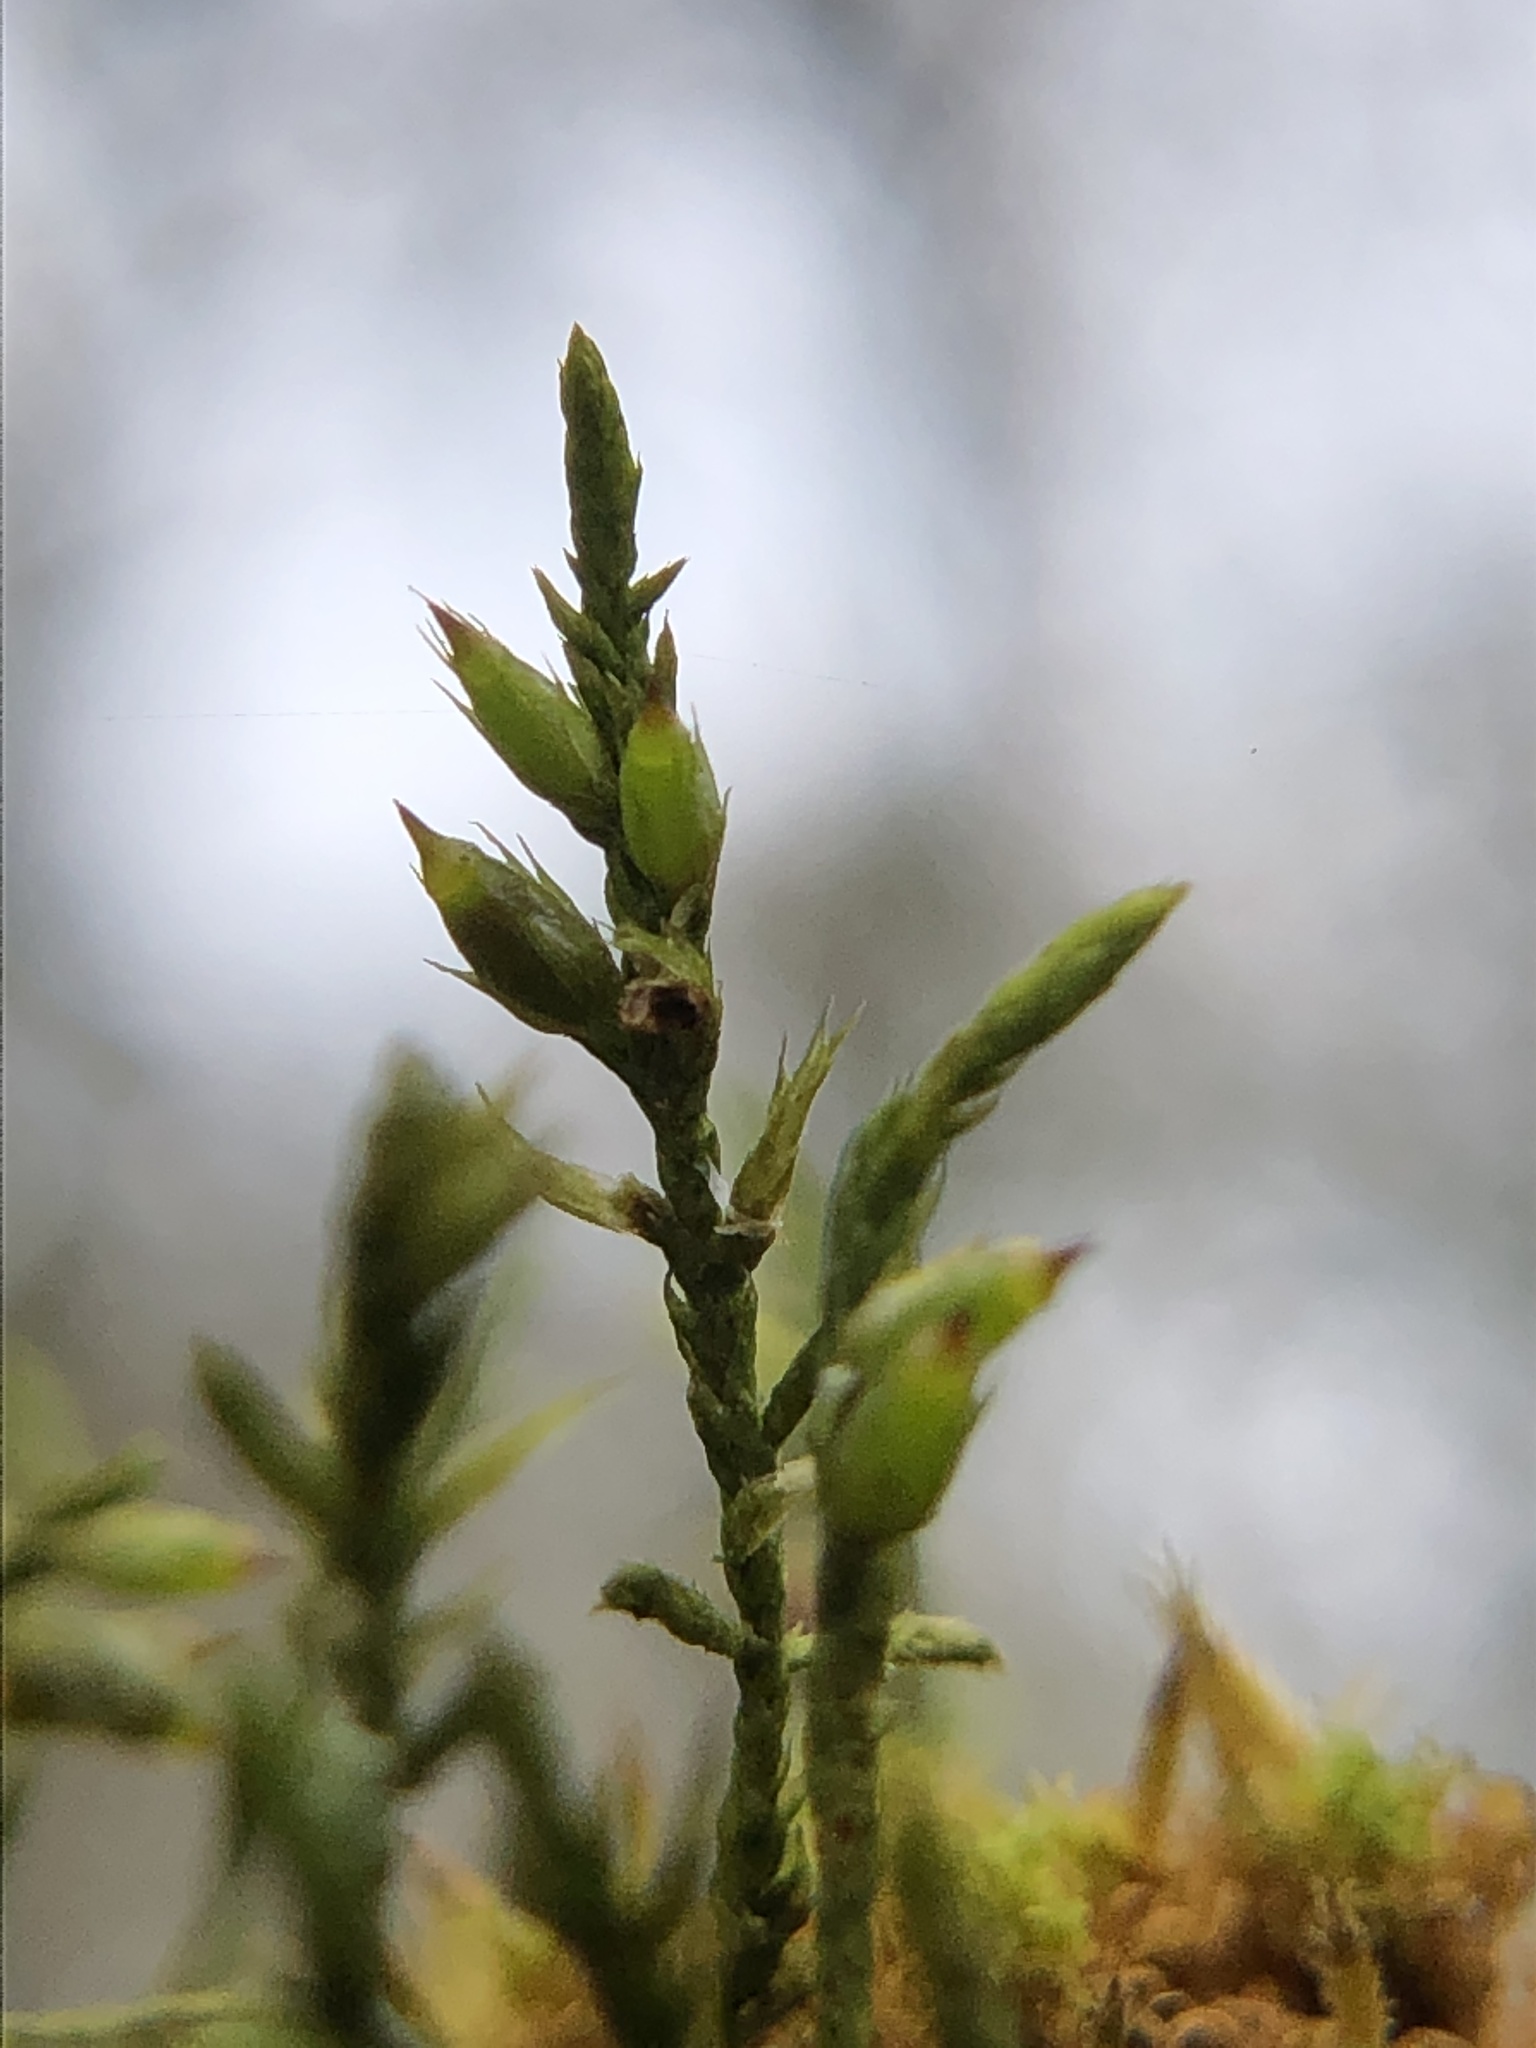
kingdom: Plantae
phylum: Bryophyta
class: Bryopsida
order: Hypnales
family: Cryphaeaceae
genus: Cryphaea
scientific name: Cryphaea heteromalla
